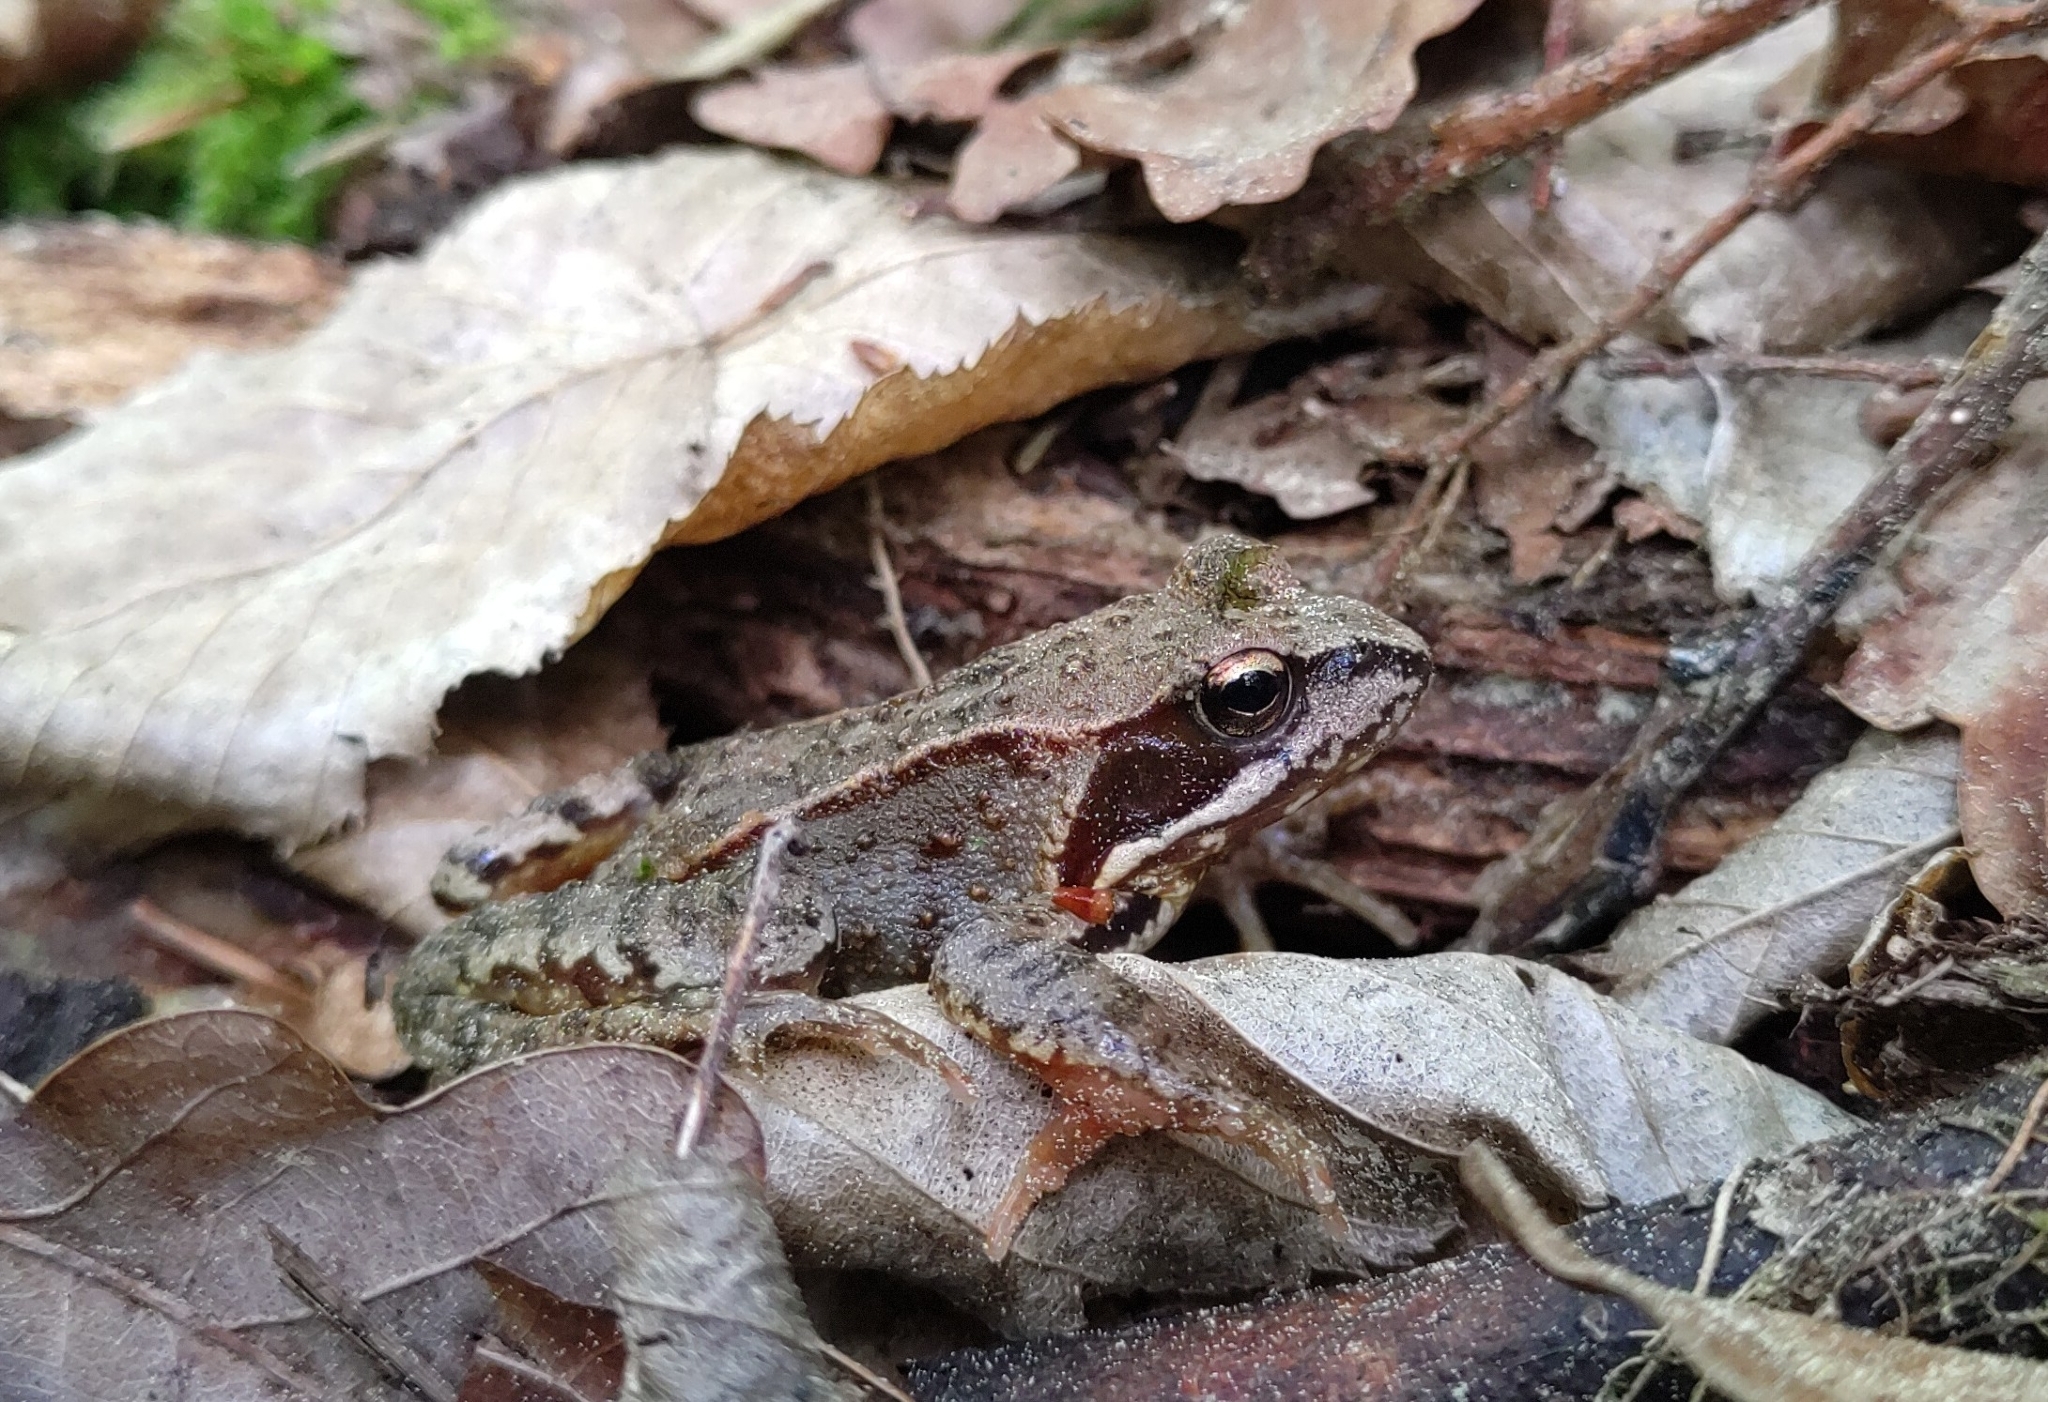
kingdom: Animalia
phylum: Chordata
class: Amphibia
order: Anura
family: Ranidae
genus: Rana
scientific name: Rana temporaria
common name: Common frog
